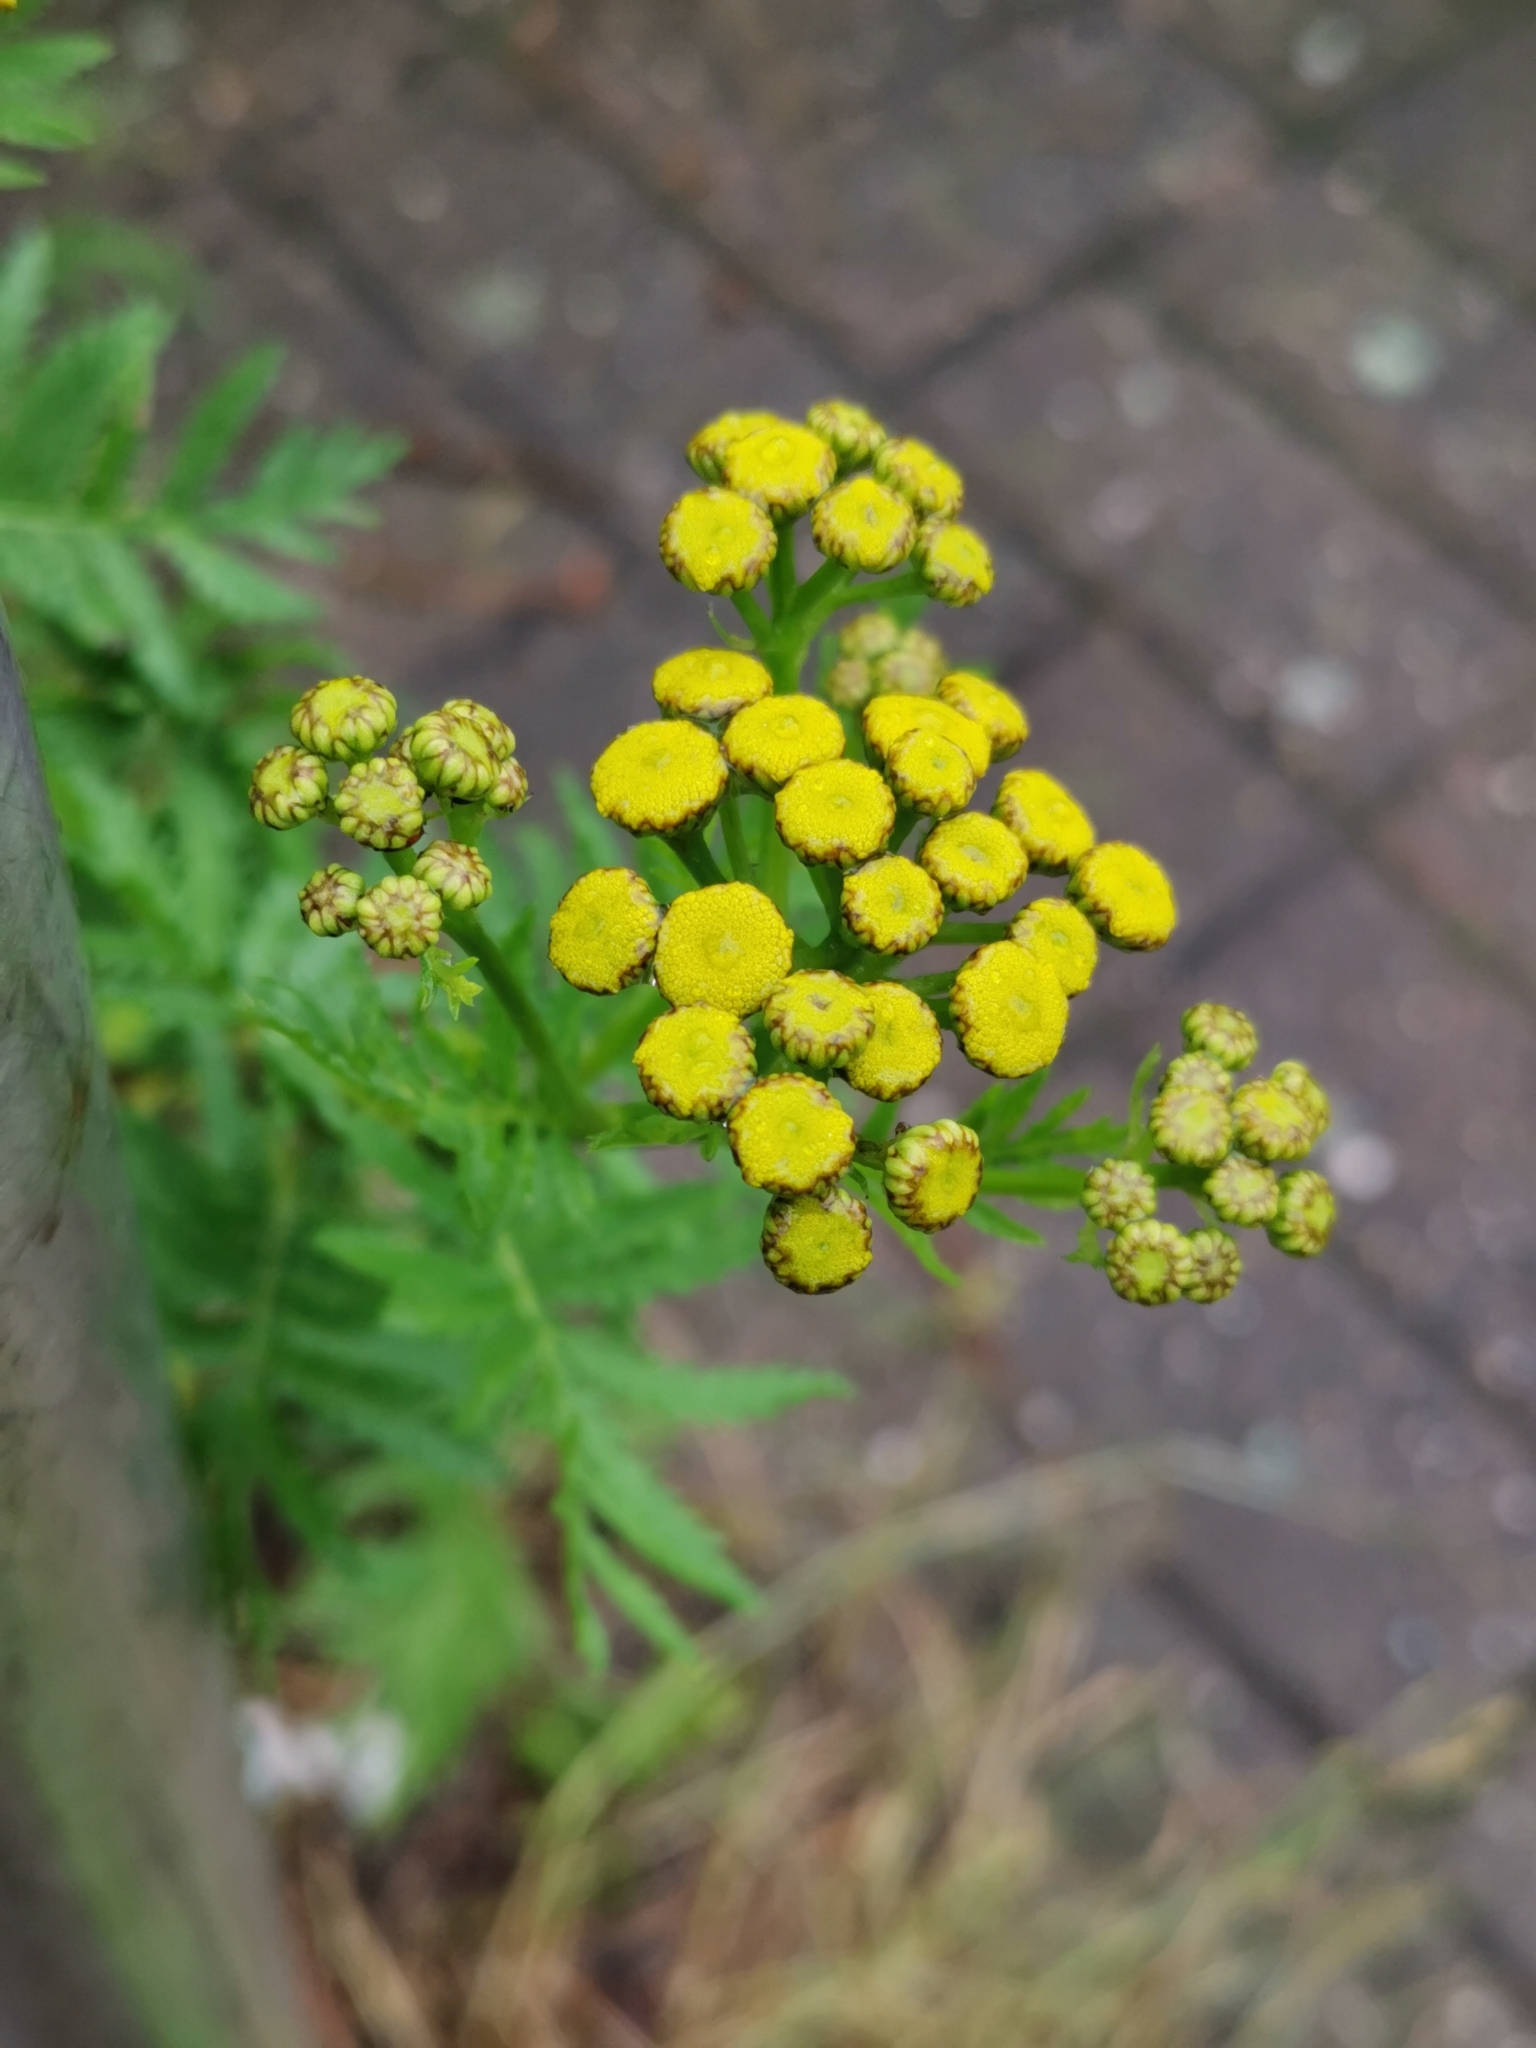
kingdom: Plantae
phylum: Tracheophyta
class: Magnoliopsida
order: Asterales
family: Asteraceae
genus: Tanacetum
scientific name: Tanacetum vulgare
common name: Common tansy
